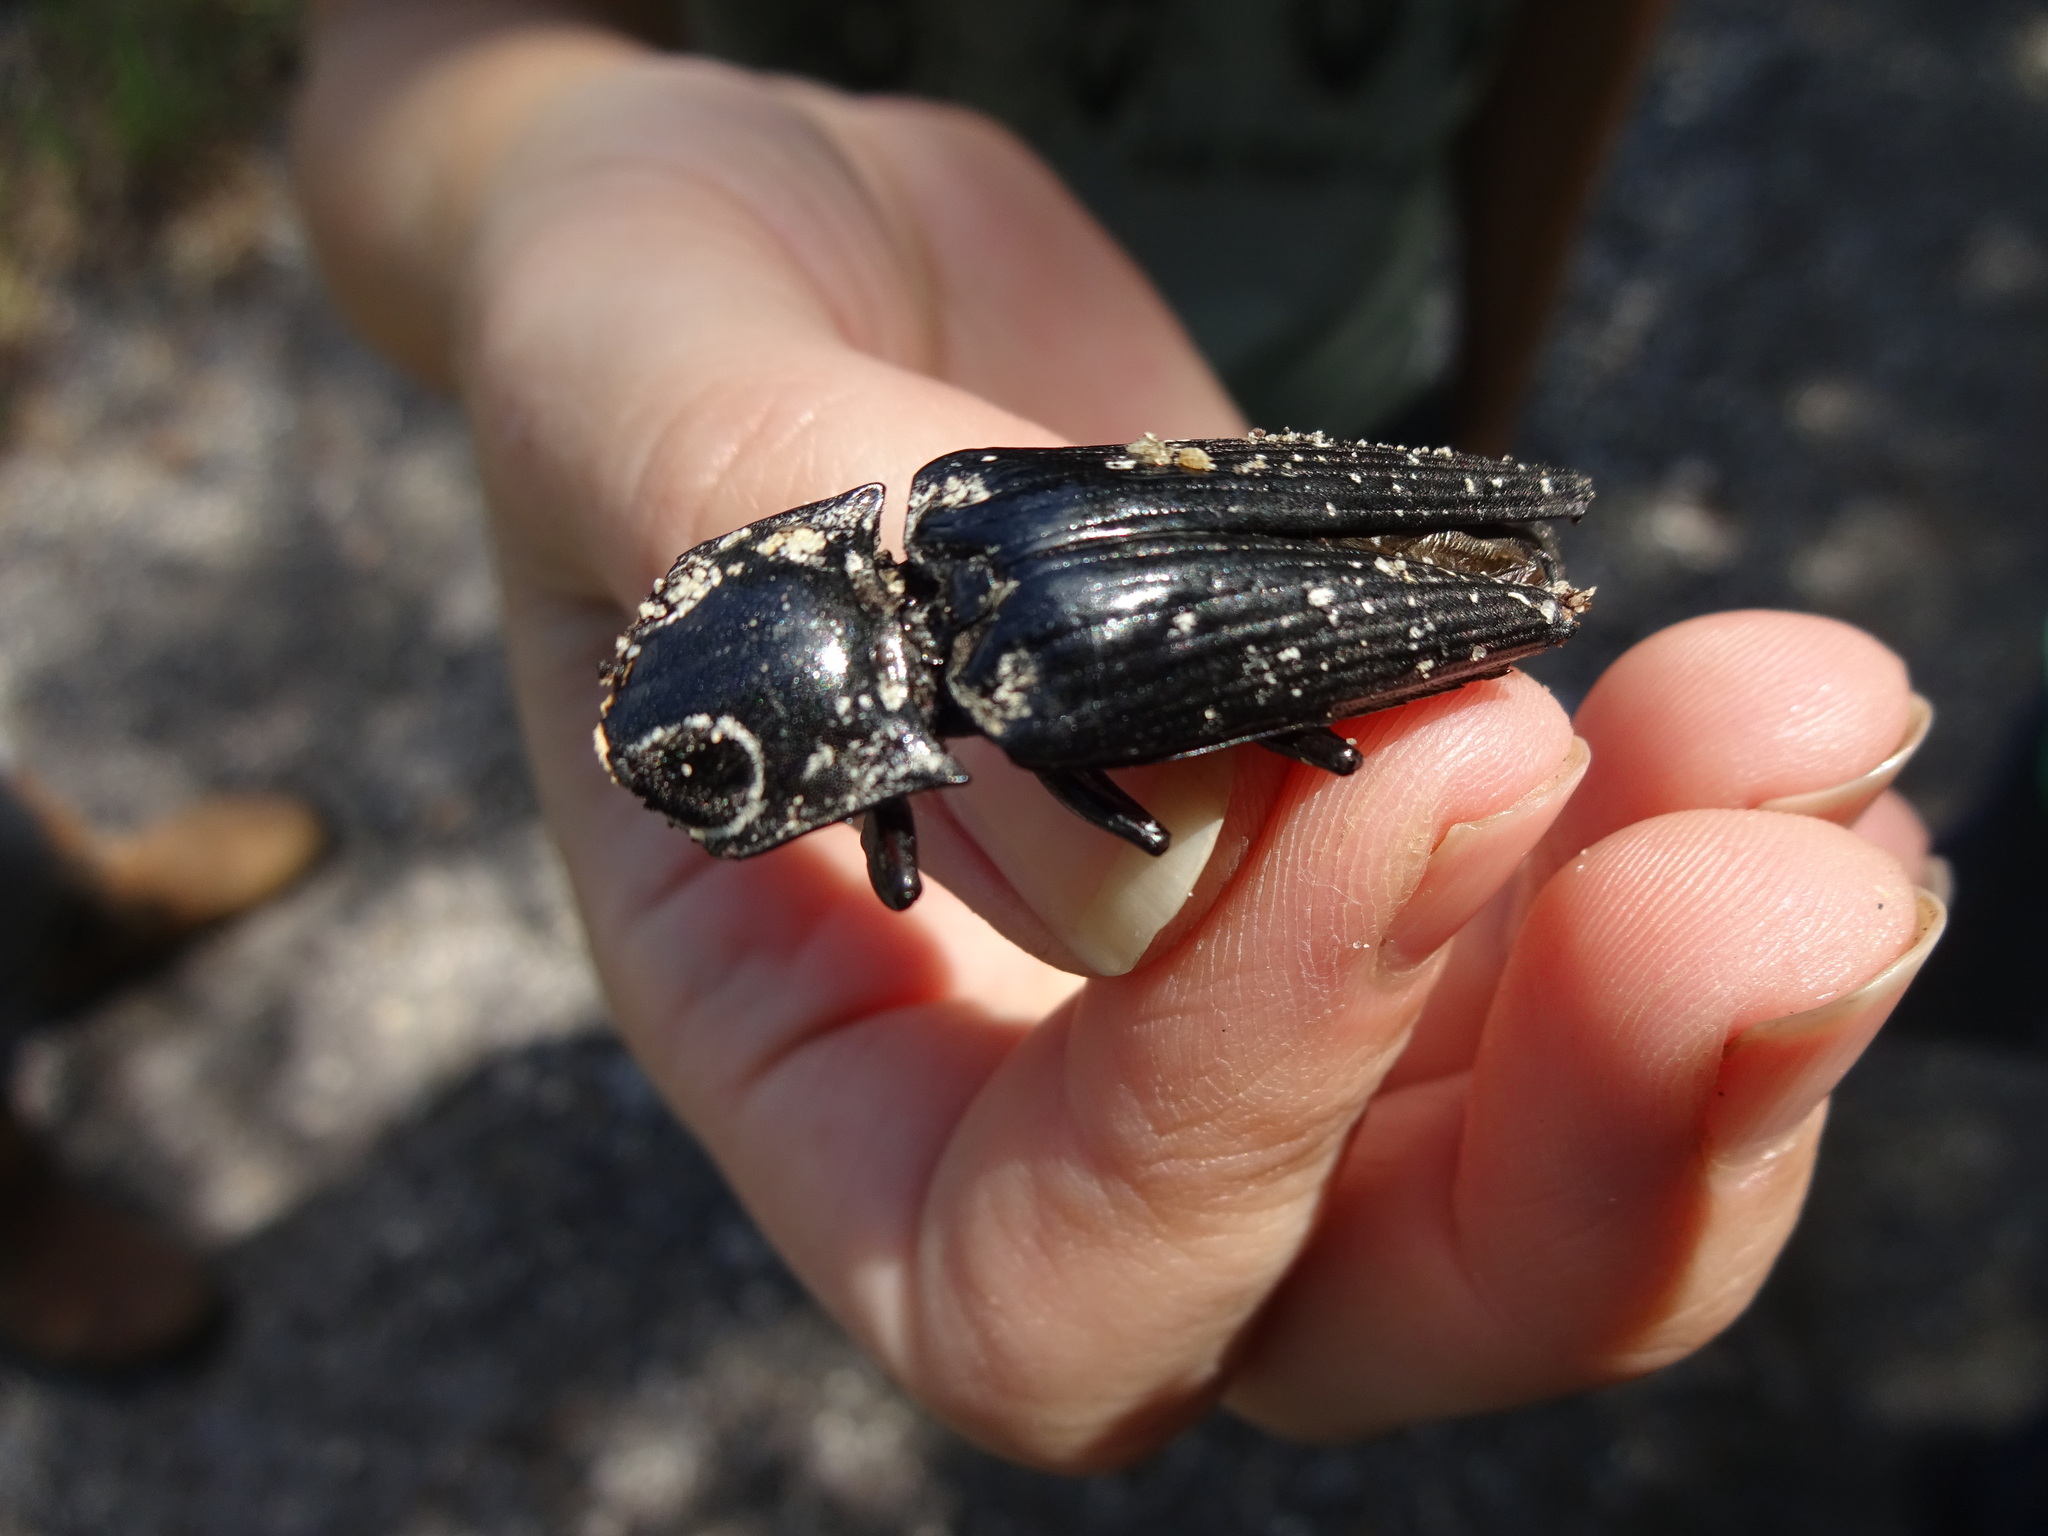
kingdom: Animalia
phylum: Arthropoda
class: Insecta
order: Coleoptera
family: Elateridae
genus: Alaus
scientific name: Alaus oculatus
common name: Eastern eyed click beetle
